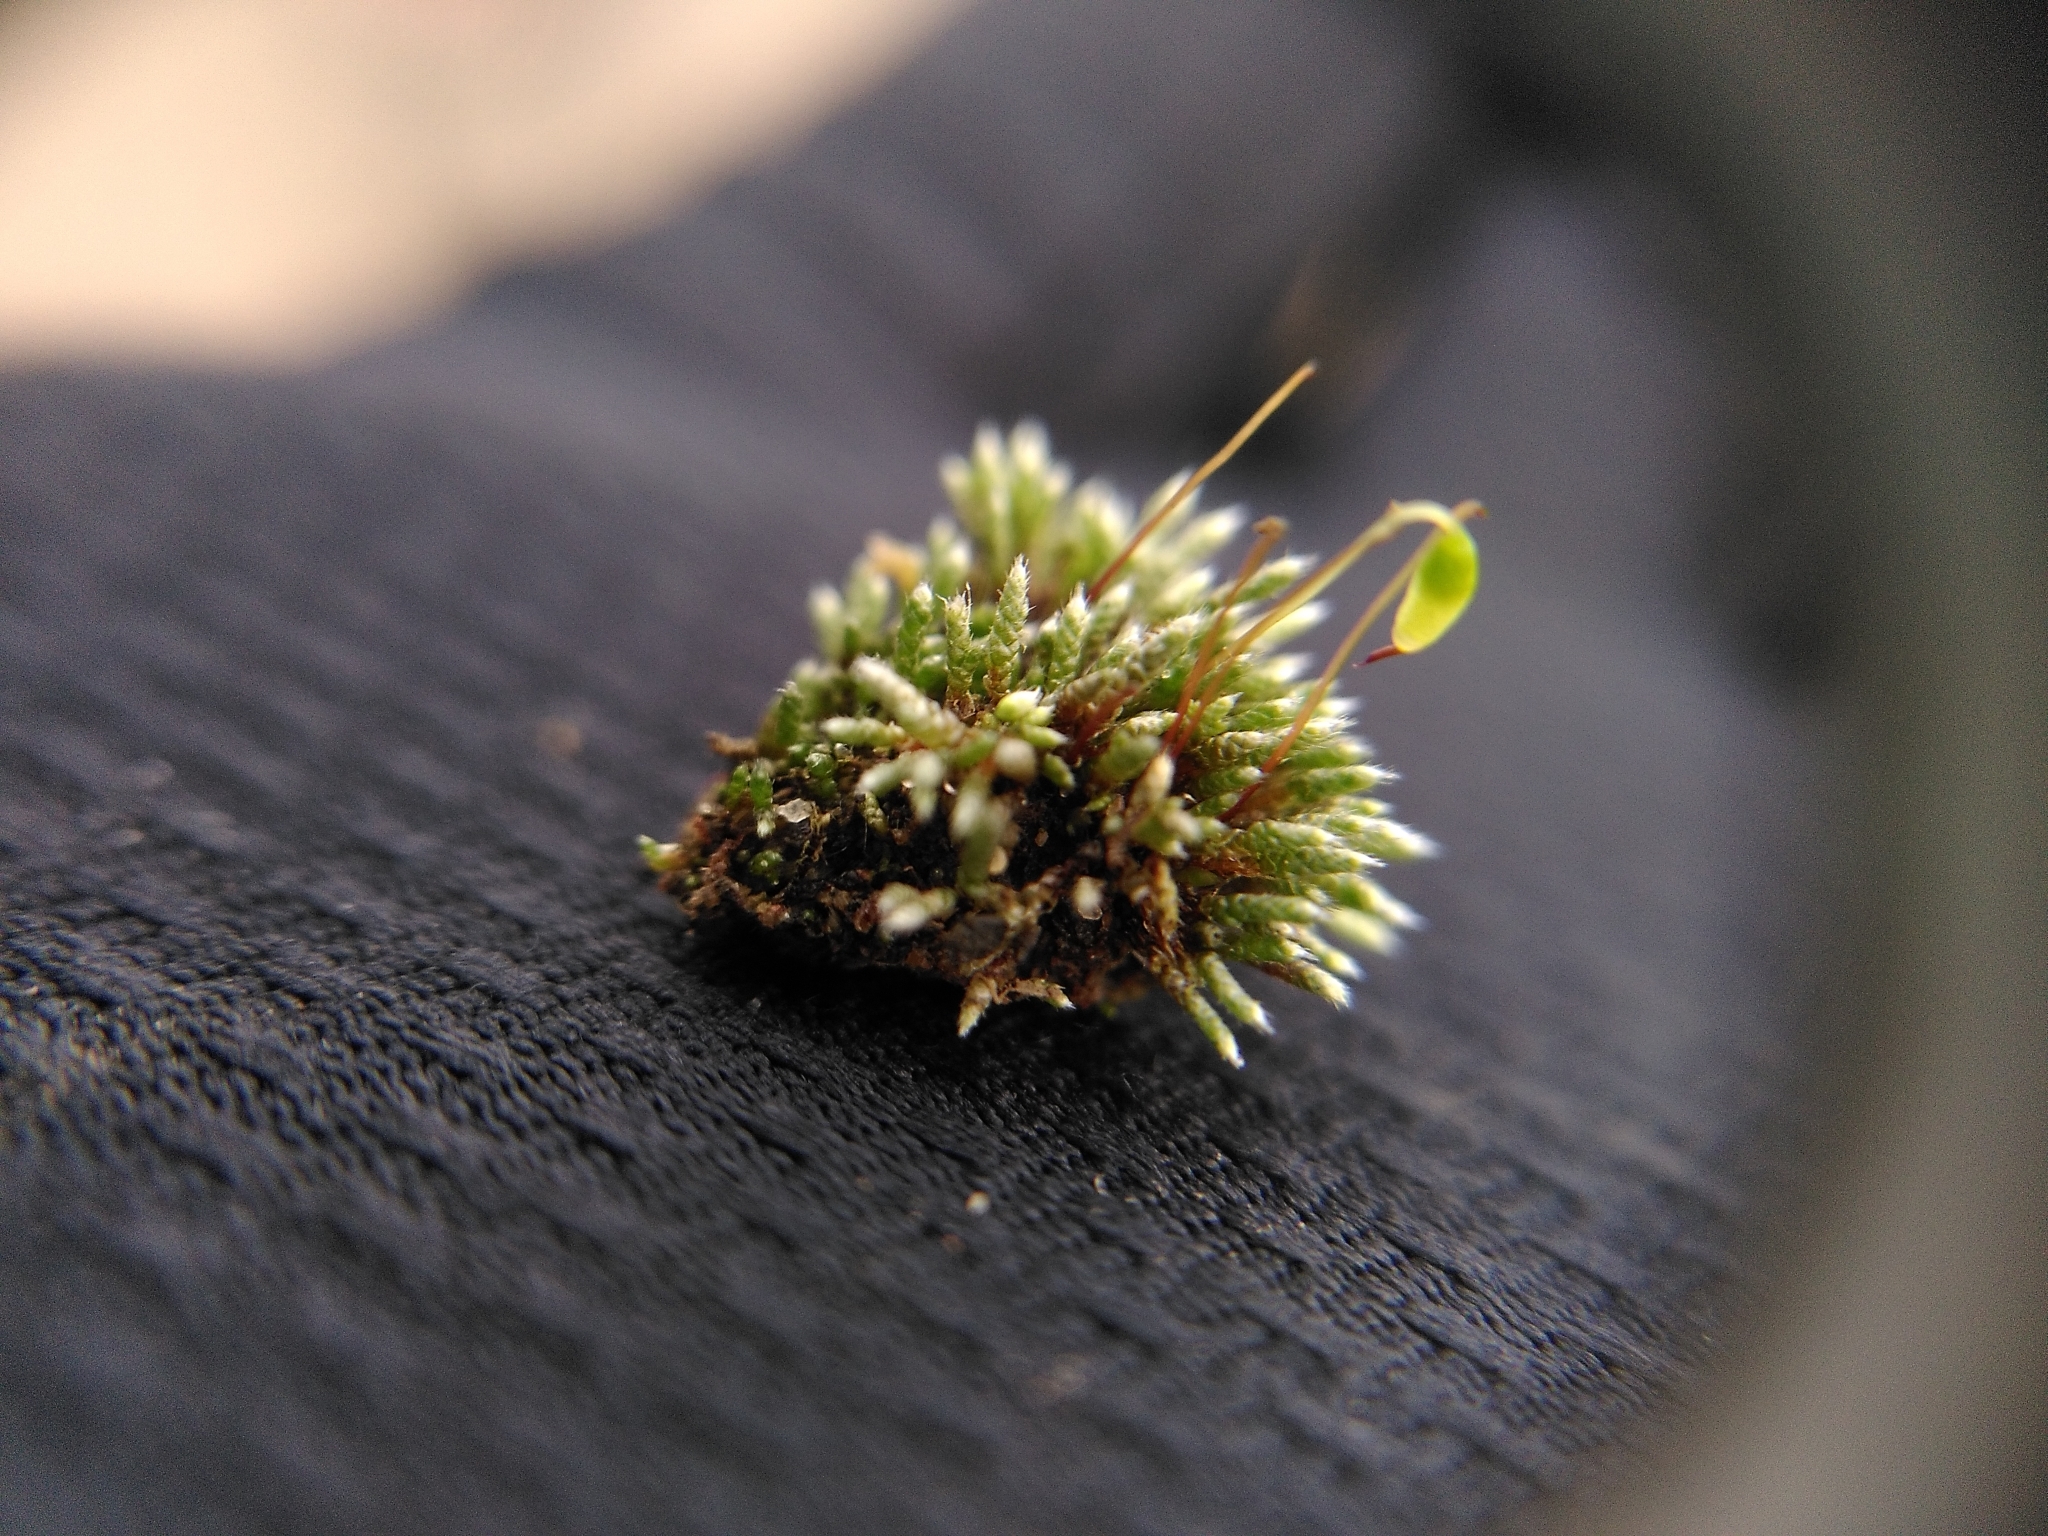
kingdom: Plantae
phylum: Bryophyta
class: Bryopsida
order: Bryales
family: Bryaceae
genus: Bryum
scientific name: Bryum argenteum
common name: Silver-moss
